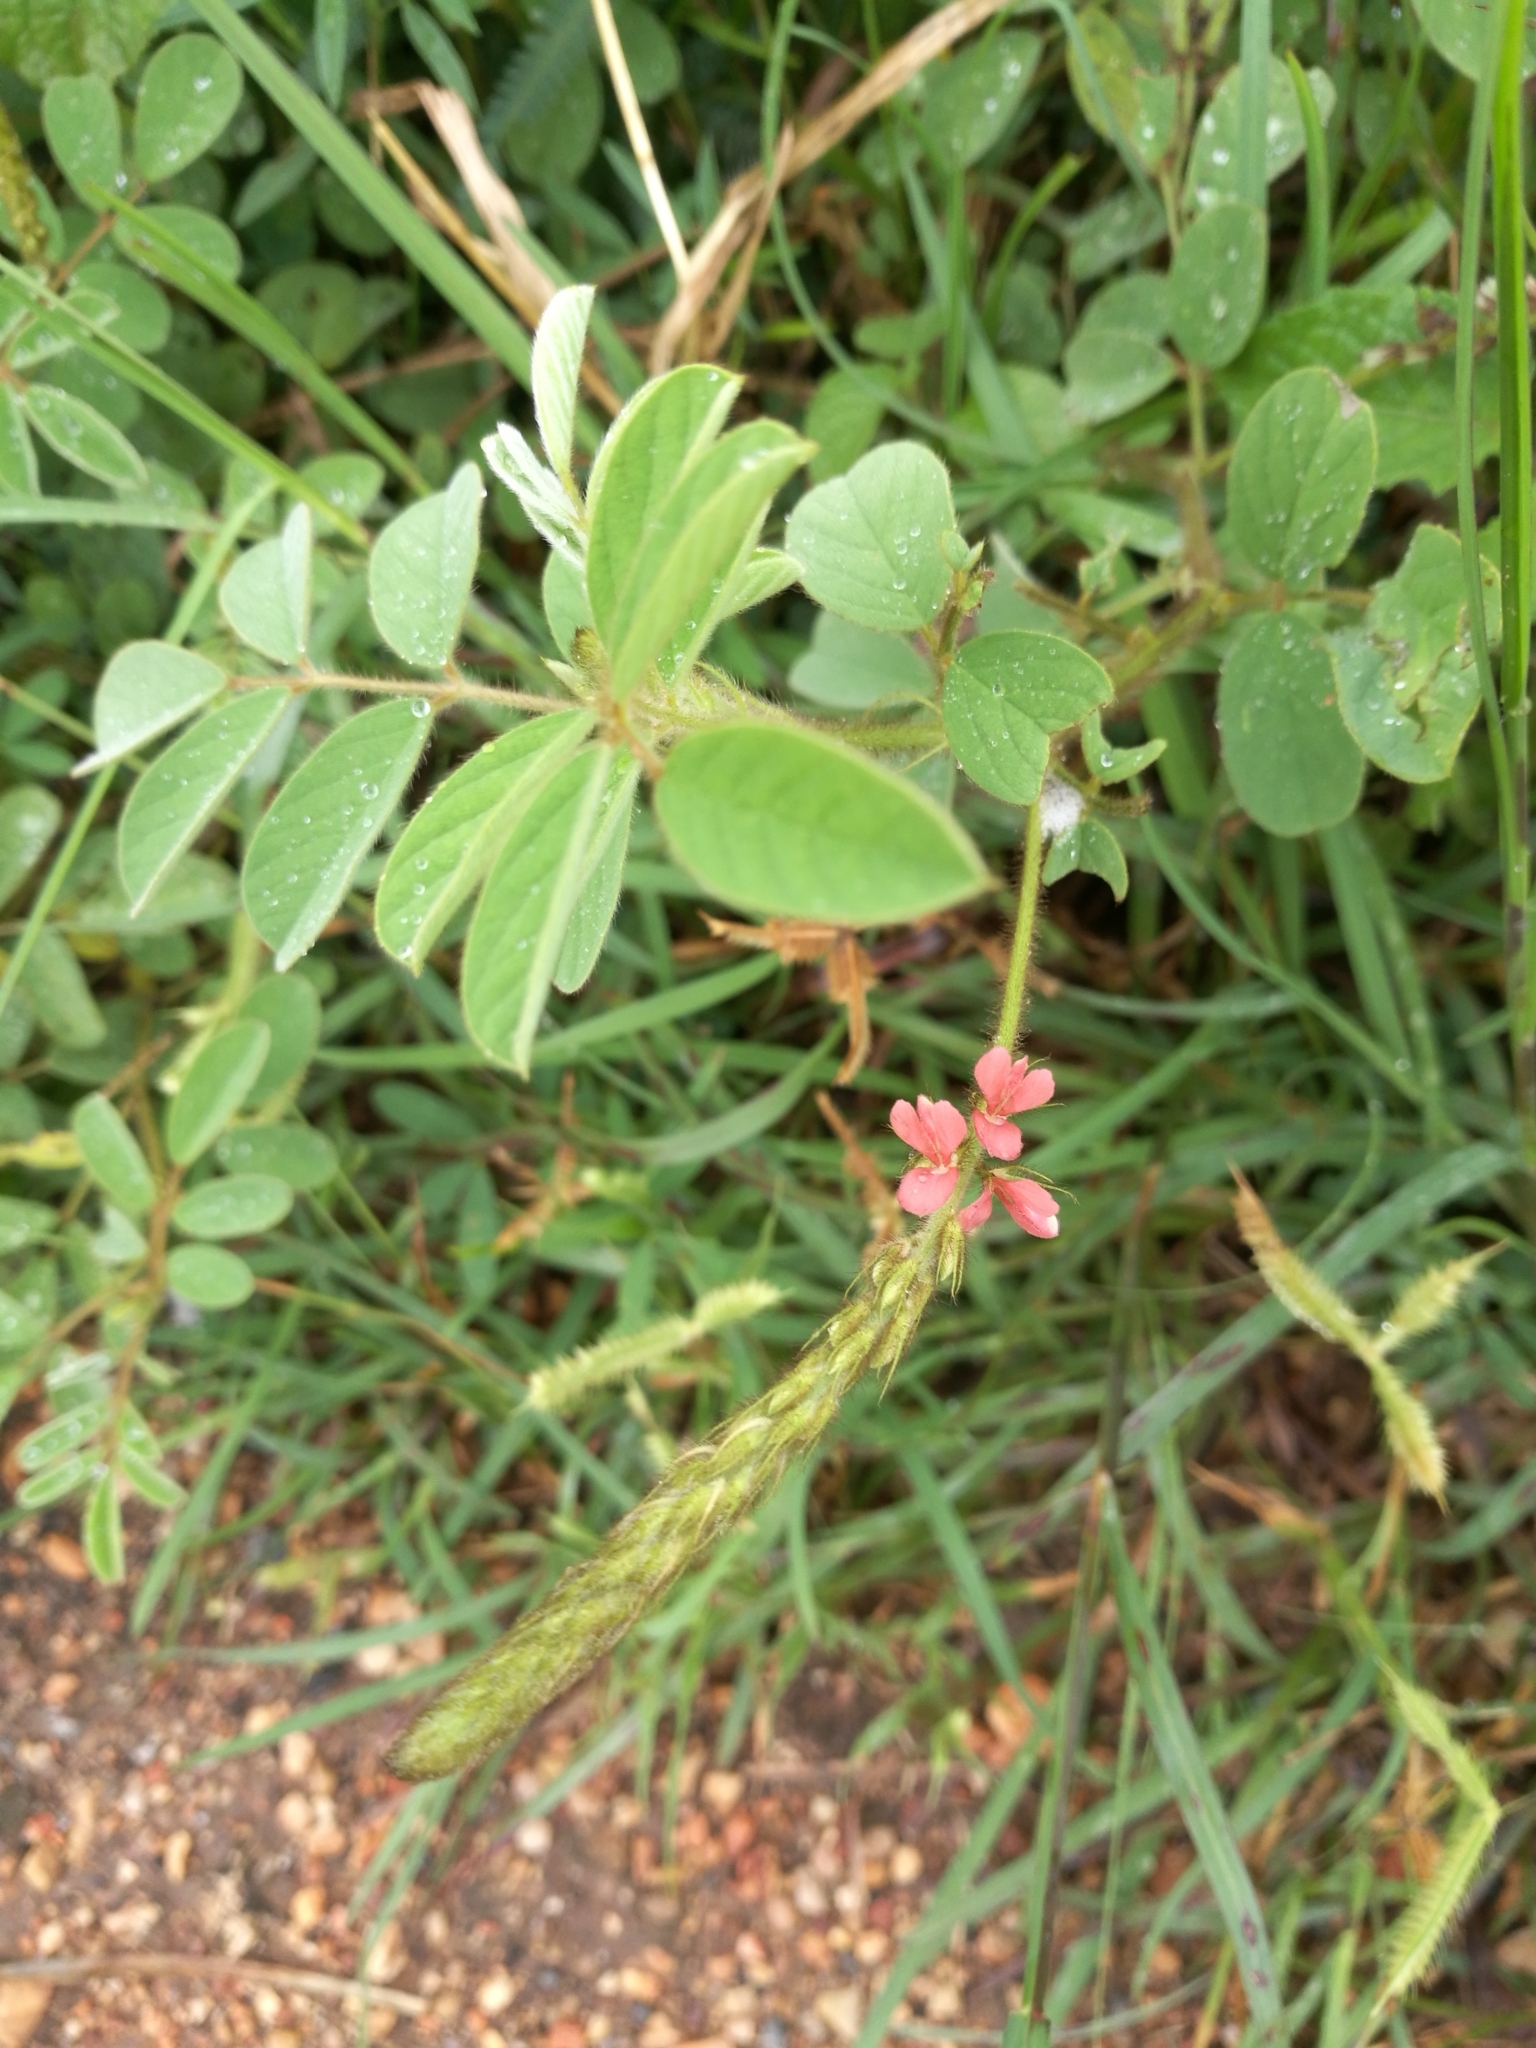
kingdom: Plantae
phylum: Tracheophyta
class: Magnoliopsida
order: Fabales
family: Fabaceae
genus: Indigofera
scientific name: Indigofera hirsuta
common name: Hairy indigo
